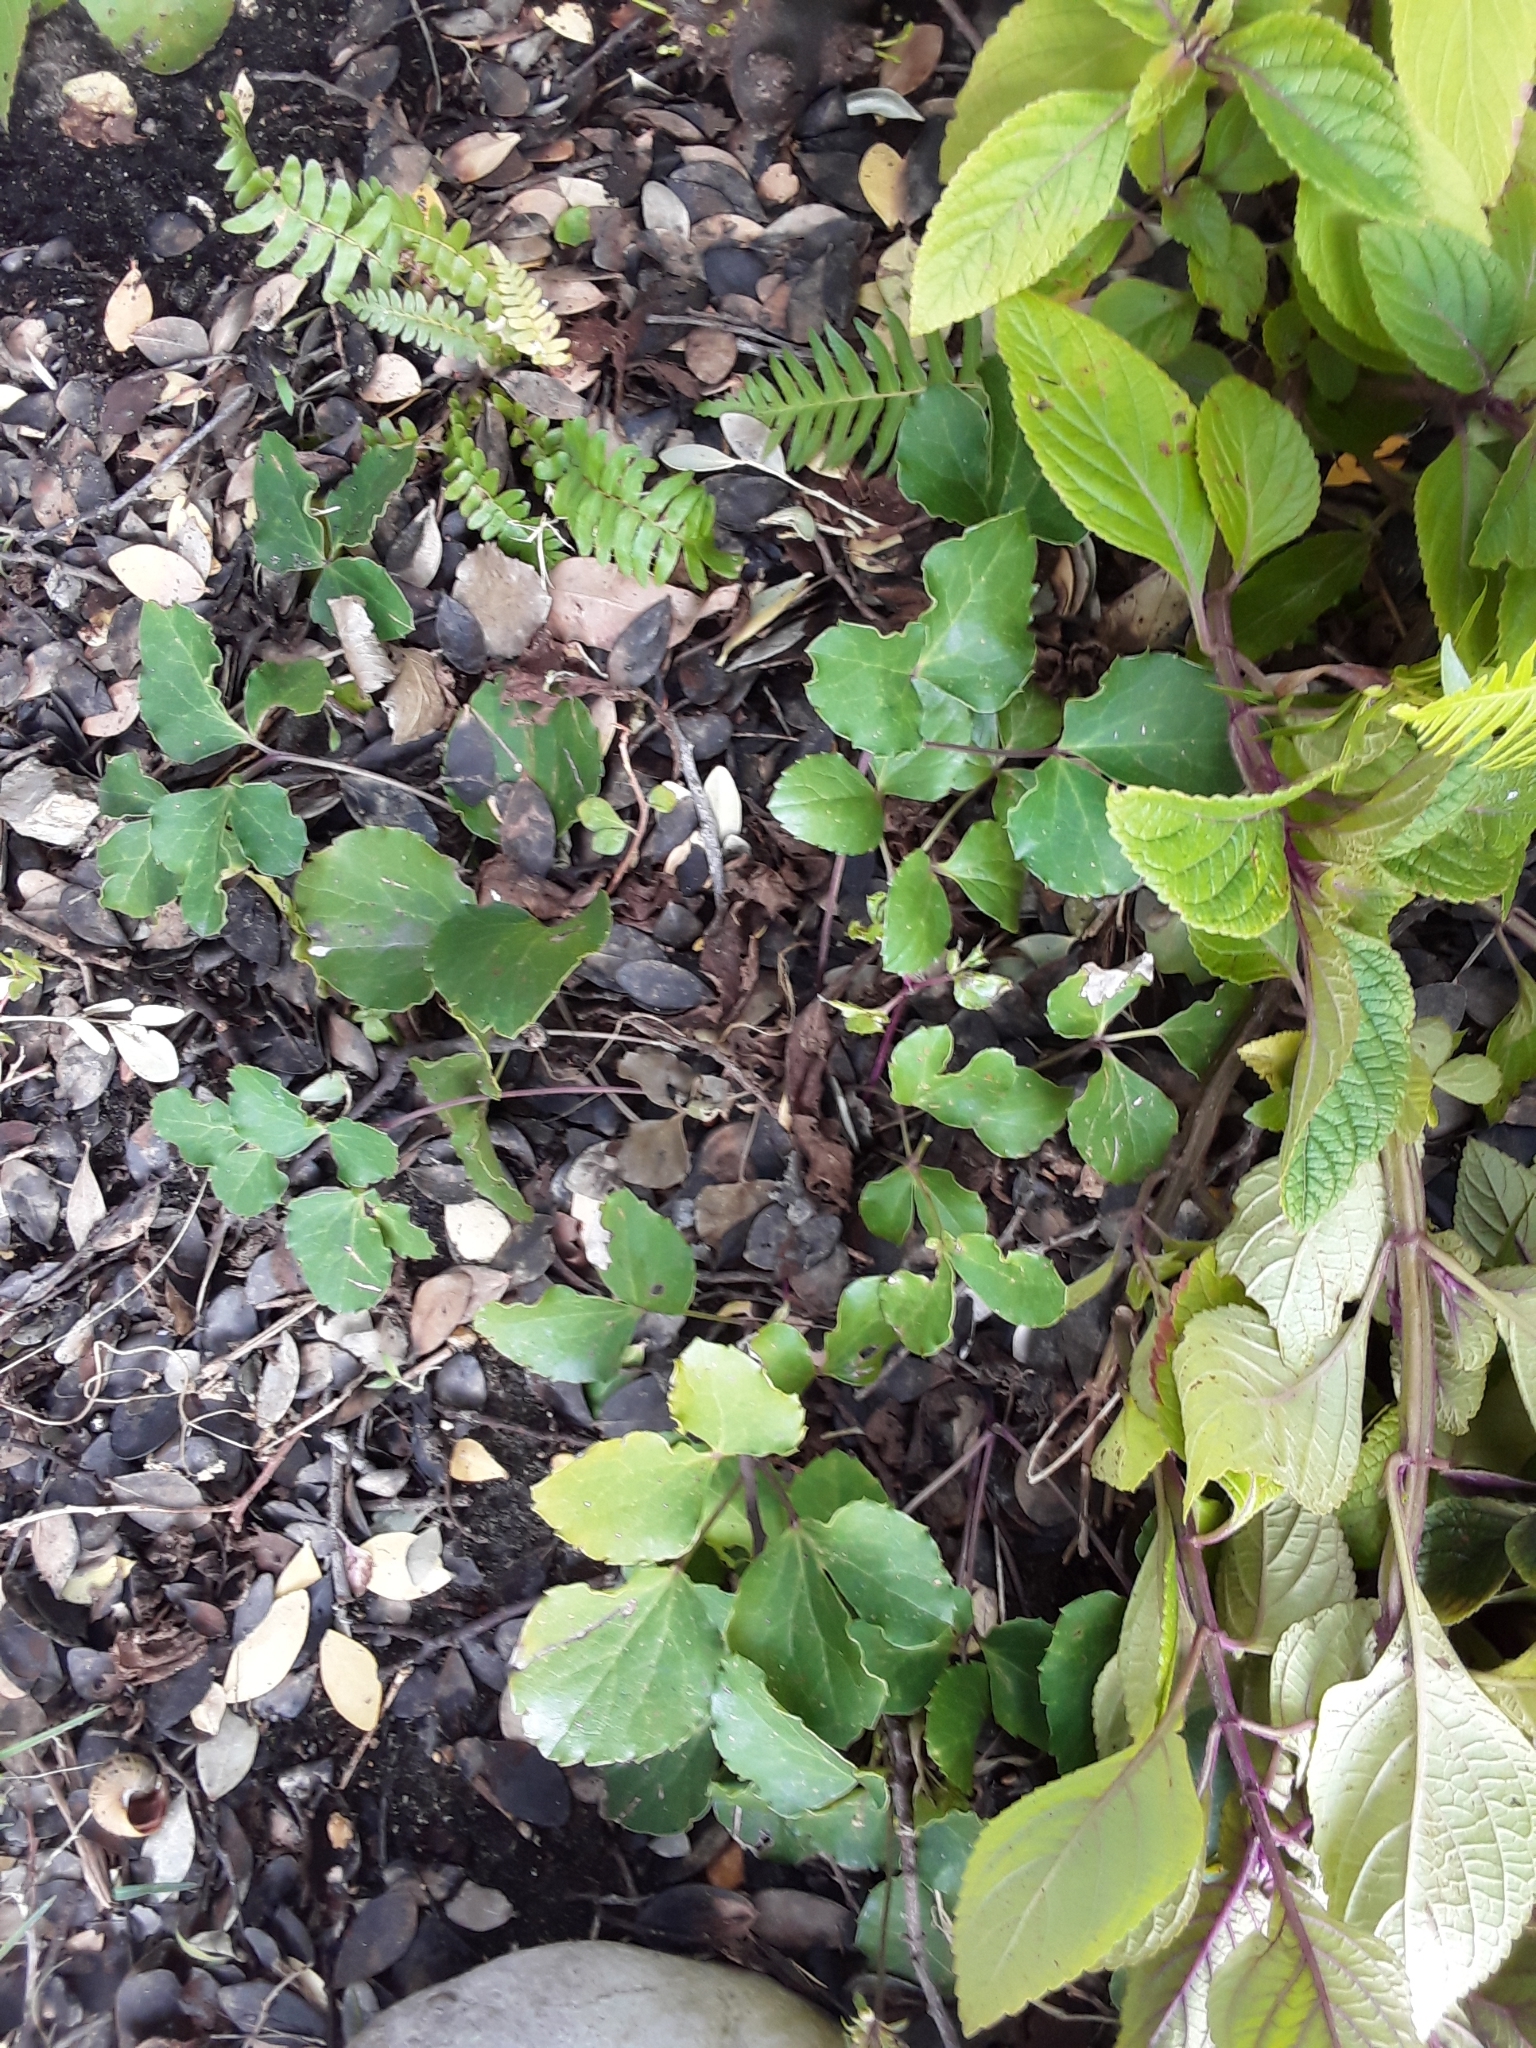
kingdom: Plantae
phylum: Tracheophyta
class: Magnoliopsida
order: Ranunculales
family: Ranunculaceae
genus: Knowltonia
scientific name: Knowltonia vesicatoria
